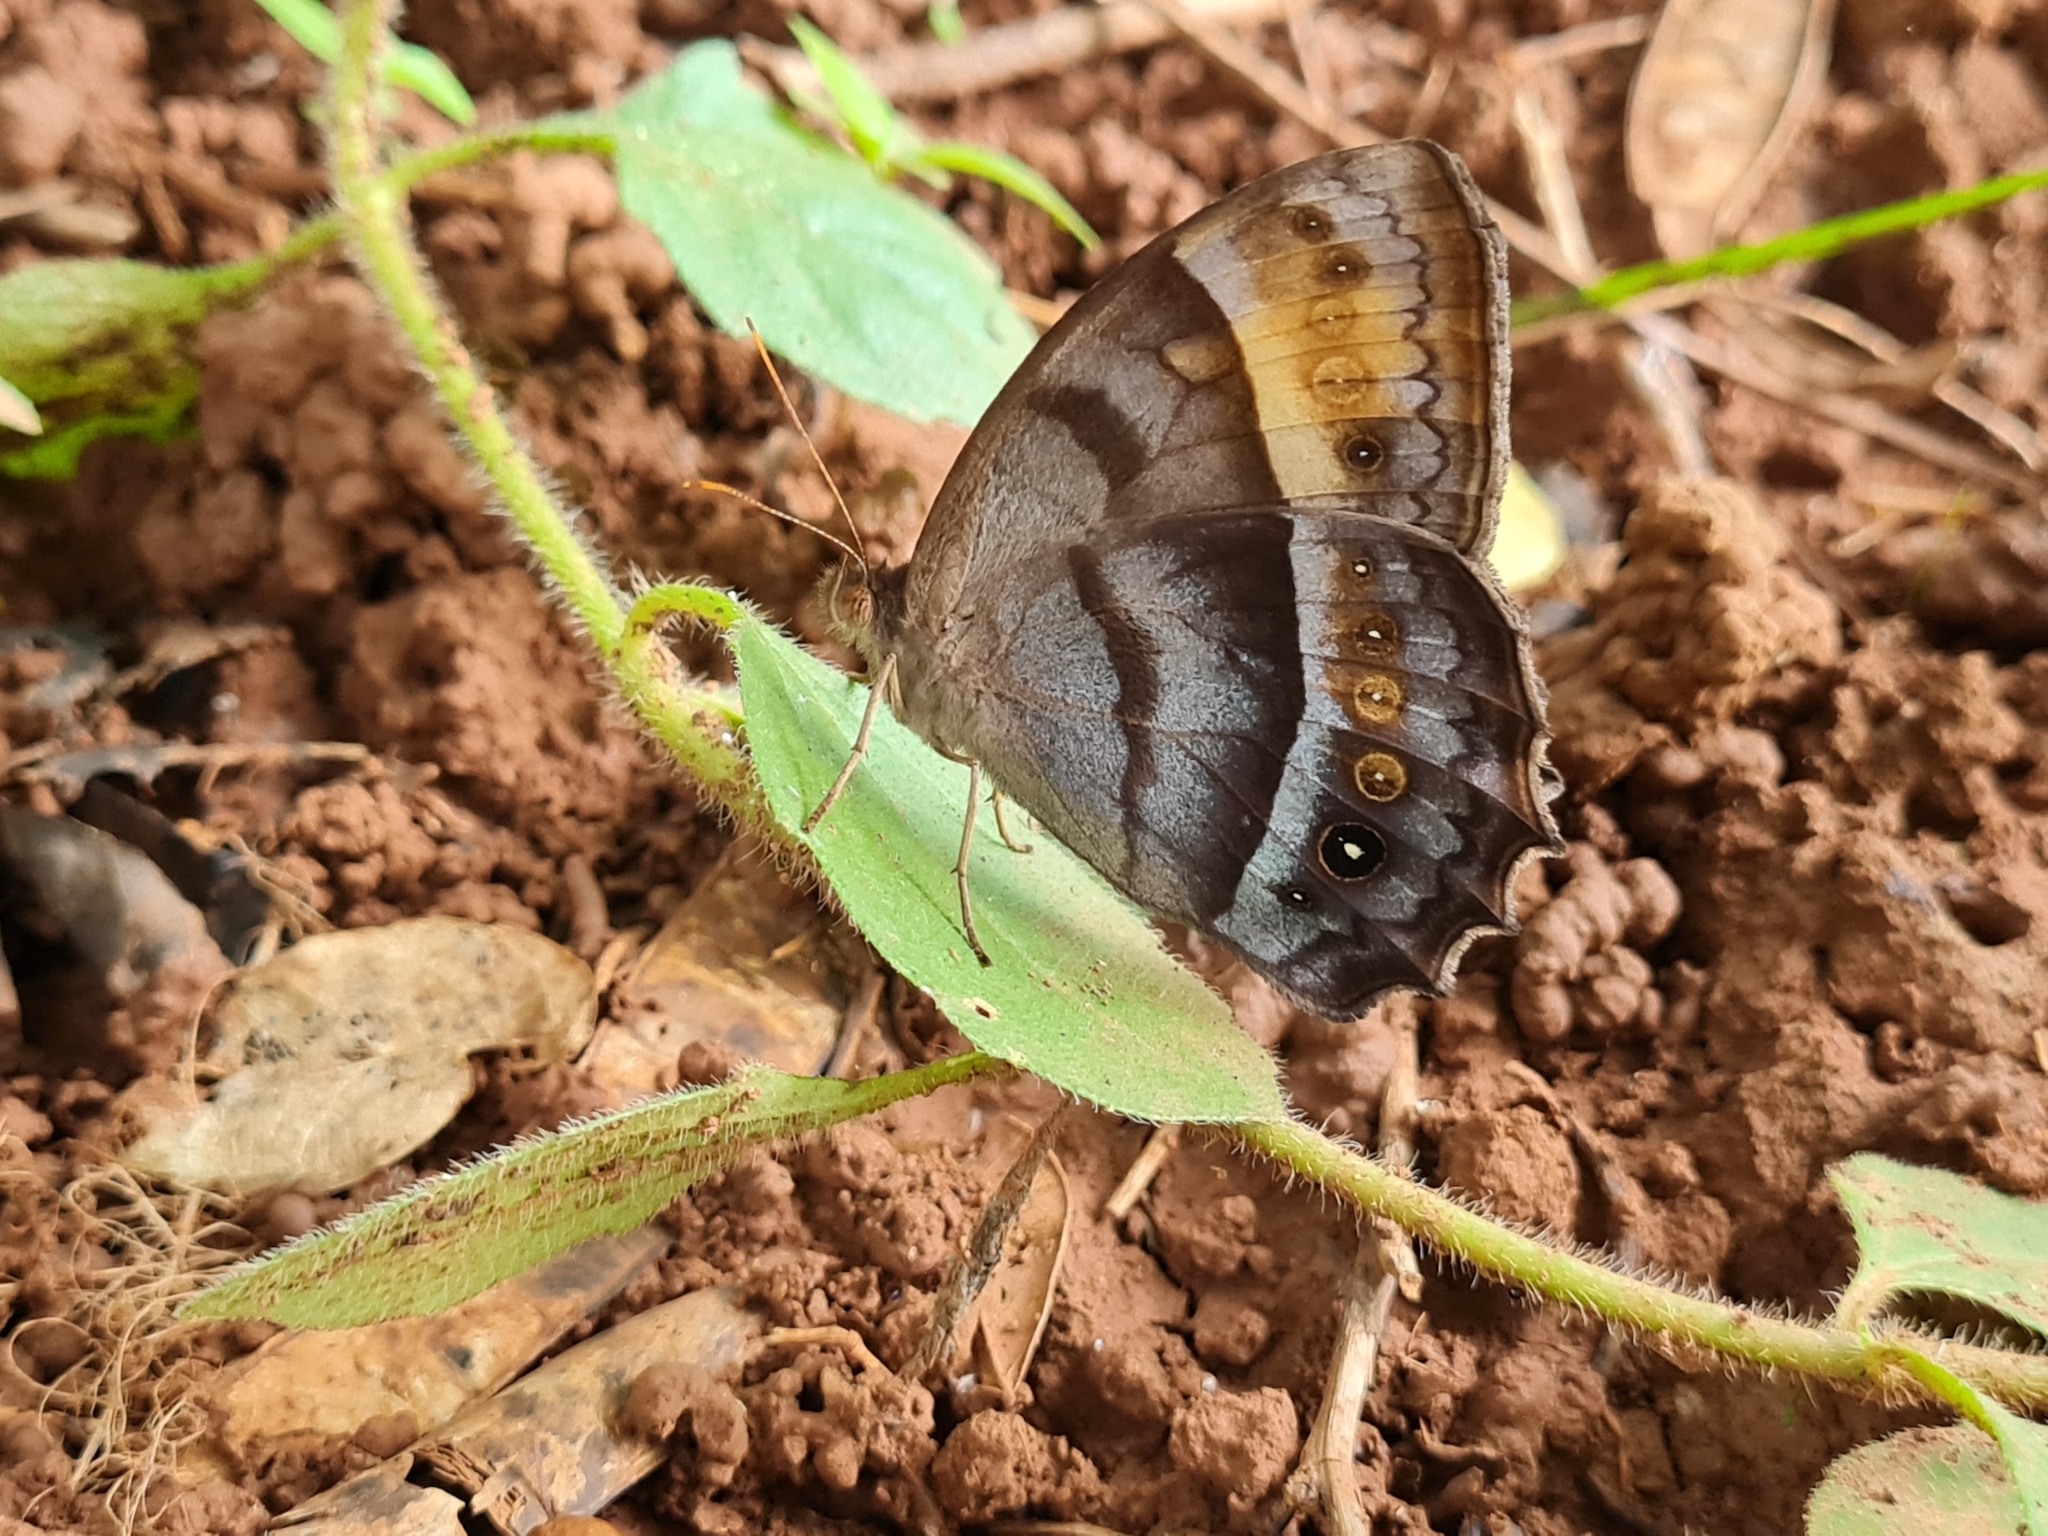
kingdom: Animalia
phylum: Arthropoda
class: Insecta
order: Lepidoptera
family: Nymphalidae
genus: Taygetis
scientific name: Taygetis thamyra
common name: Thamyra satyr
